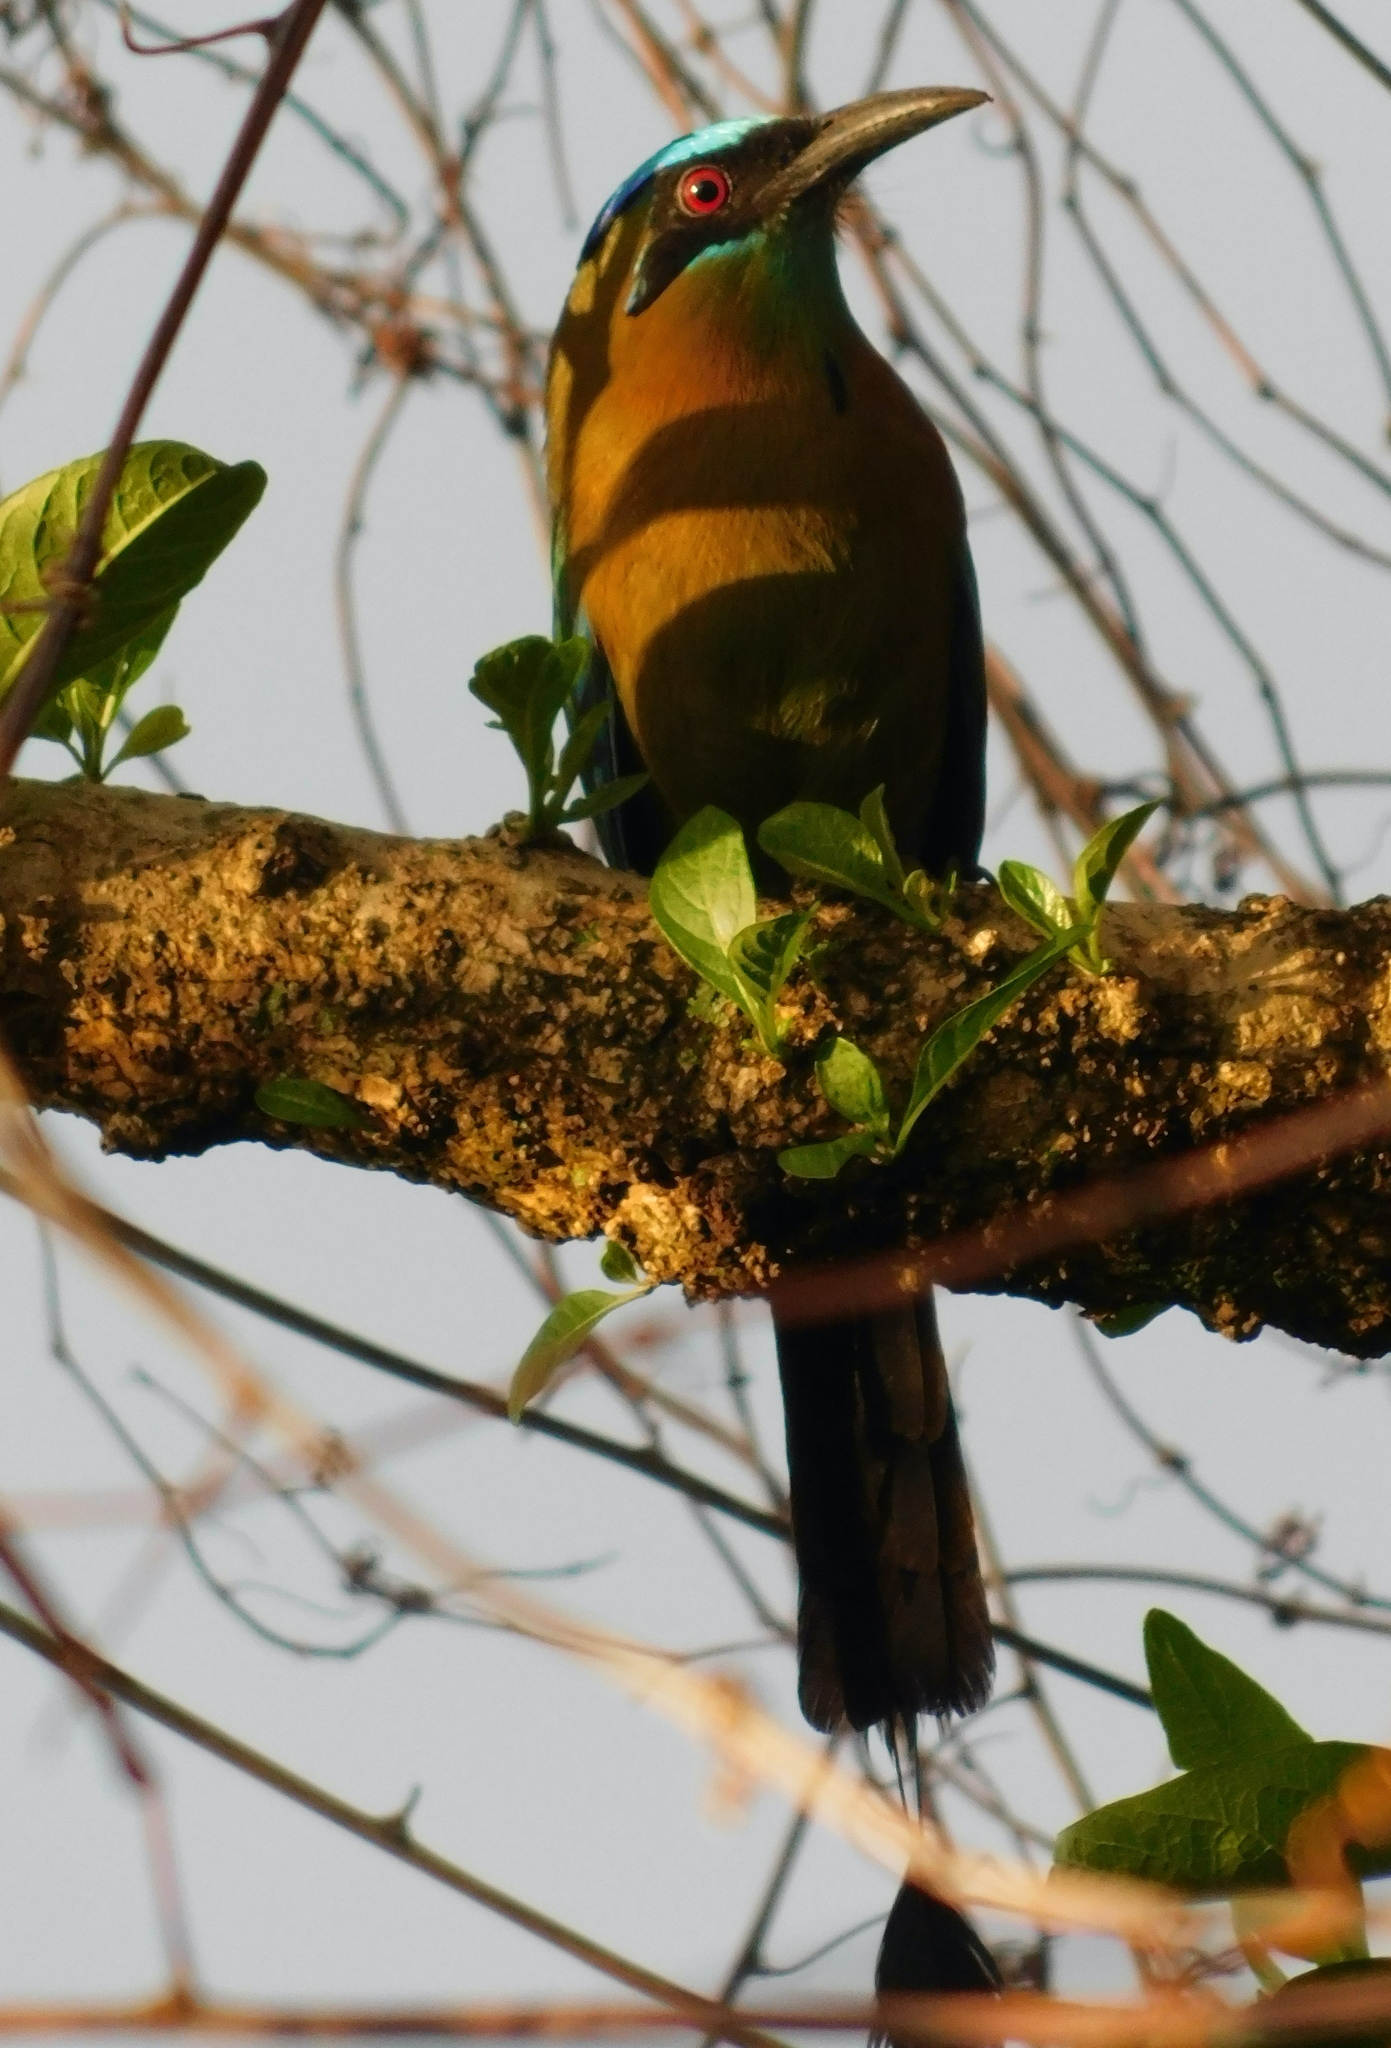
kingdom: Animalia
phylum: Chordata
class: Aves
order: Coraciiformes
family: Momotidae
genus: Momotus
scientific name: Momotus lessonii
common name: Lesson's motmot
